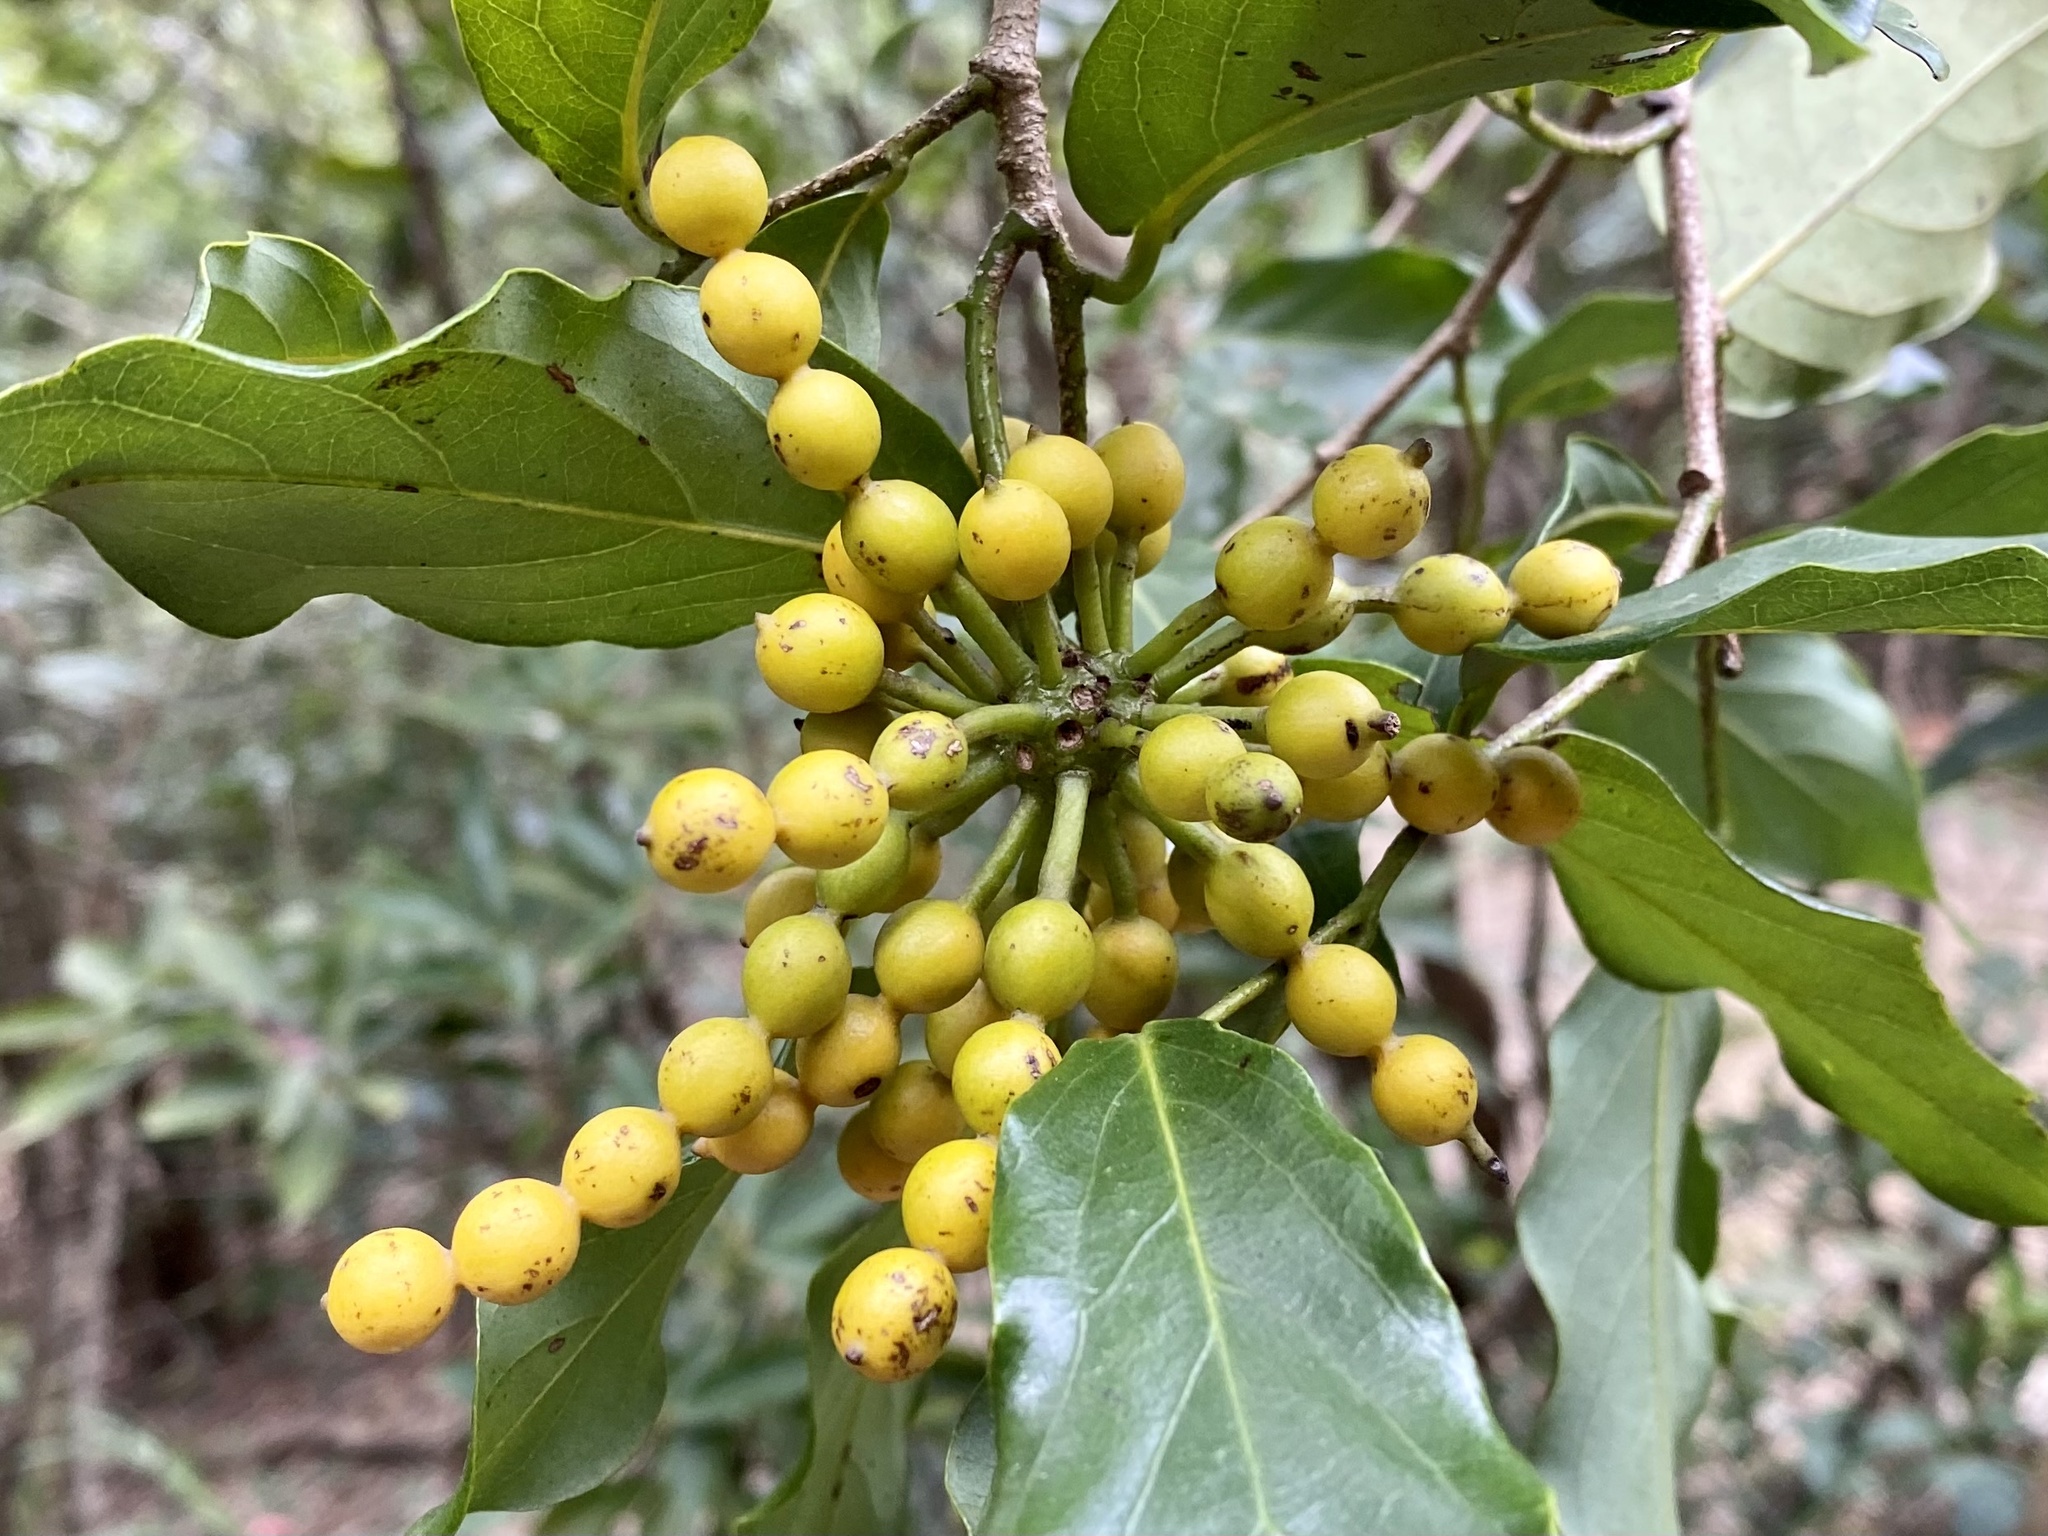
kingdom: Plantae
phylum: Tracheophyta
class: Magnoliopsida
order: Magnoliales
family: Annonaceae
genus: Desmos
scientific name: Desmos chinensis
